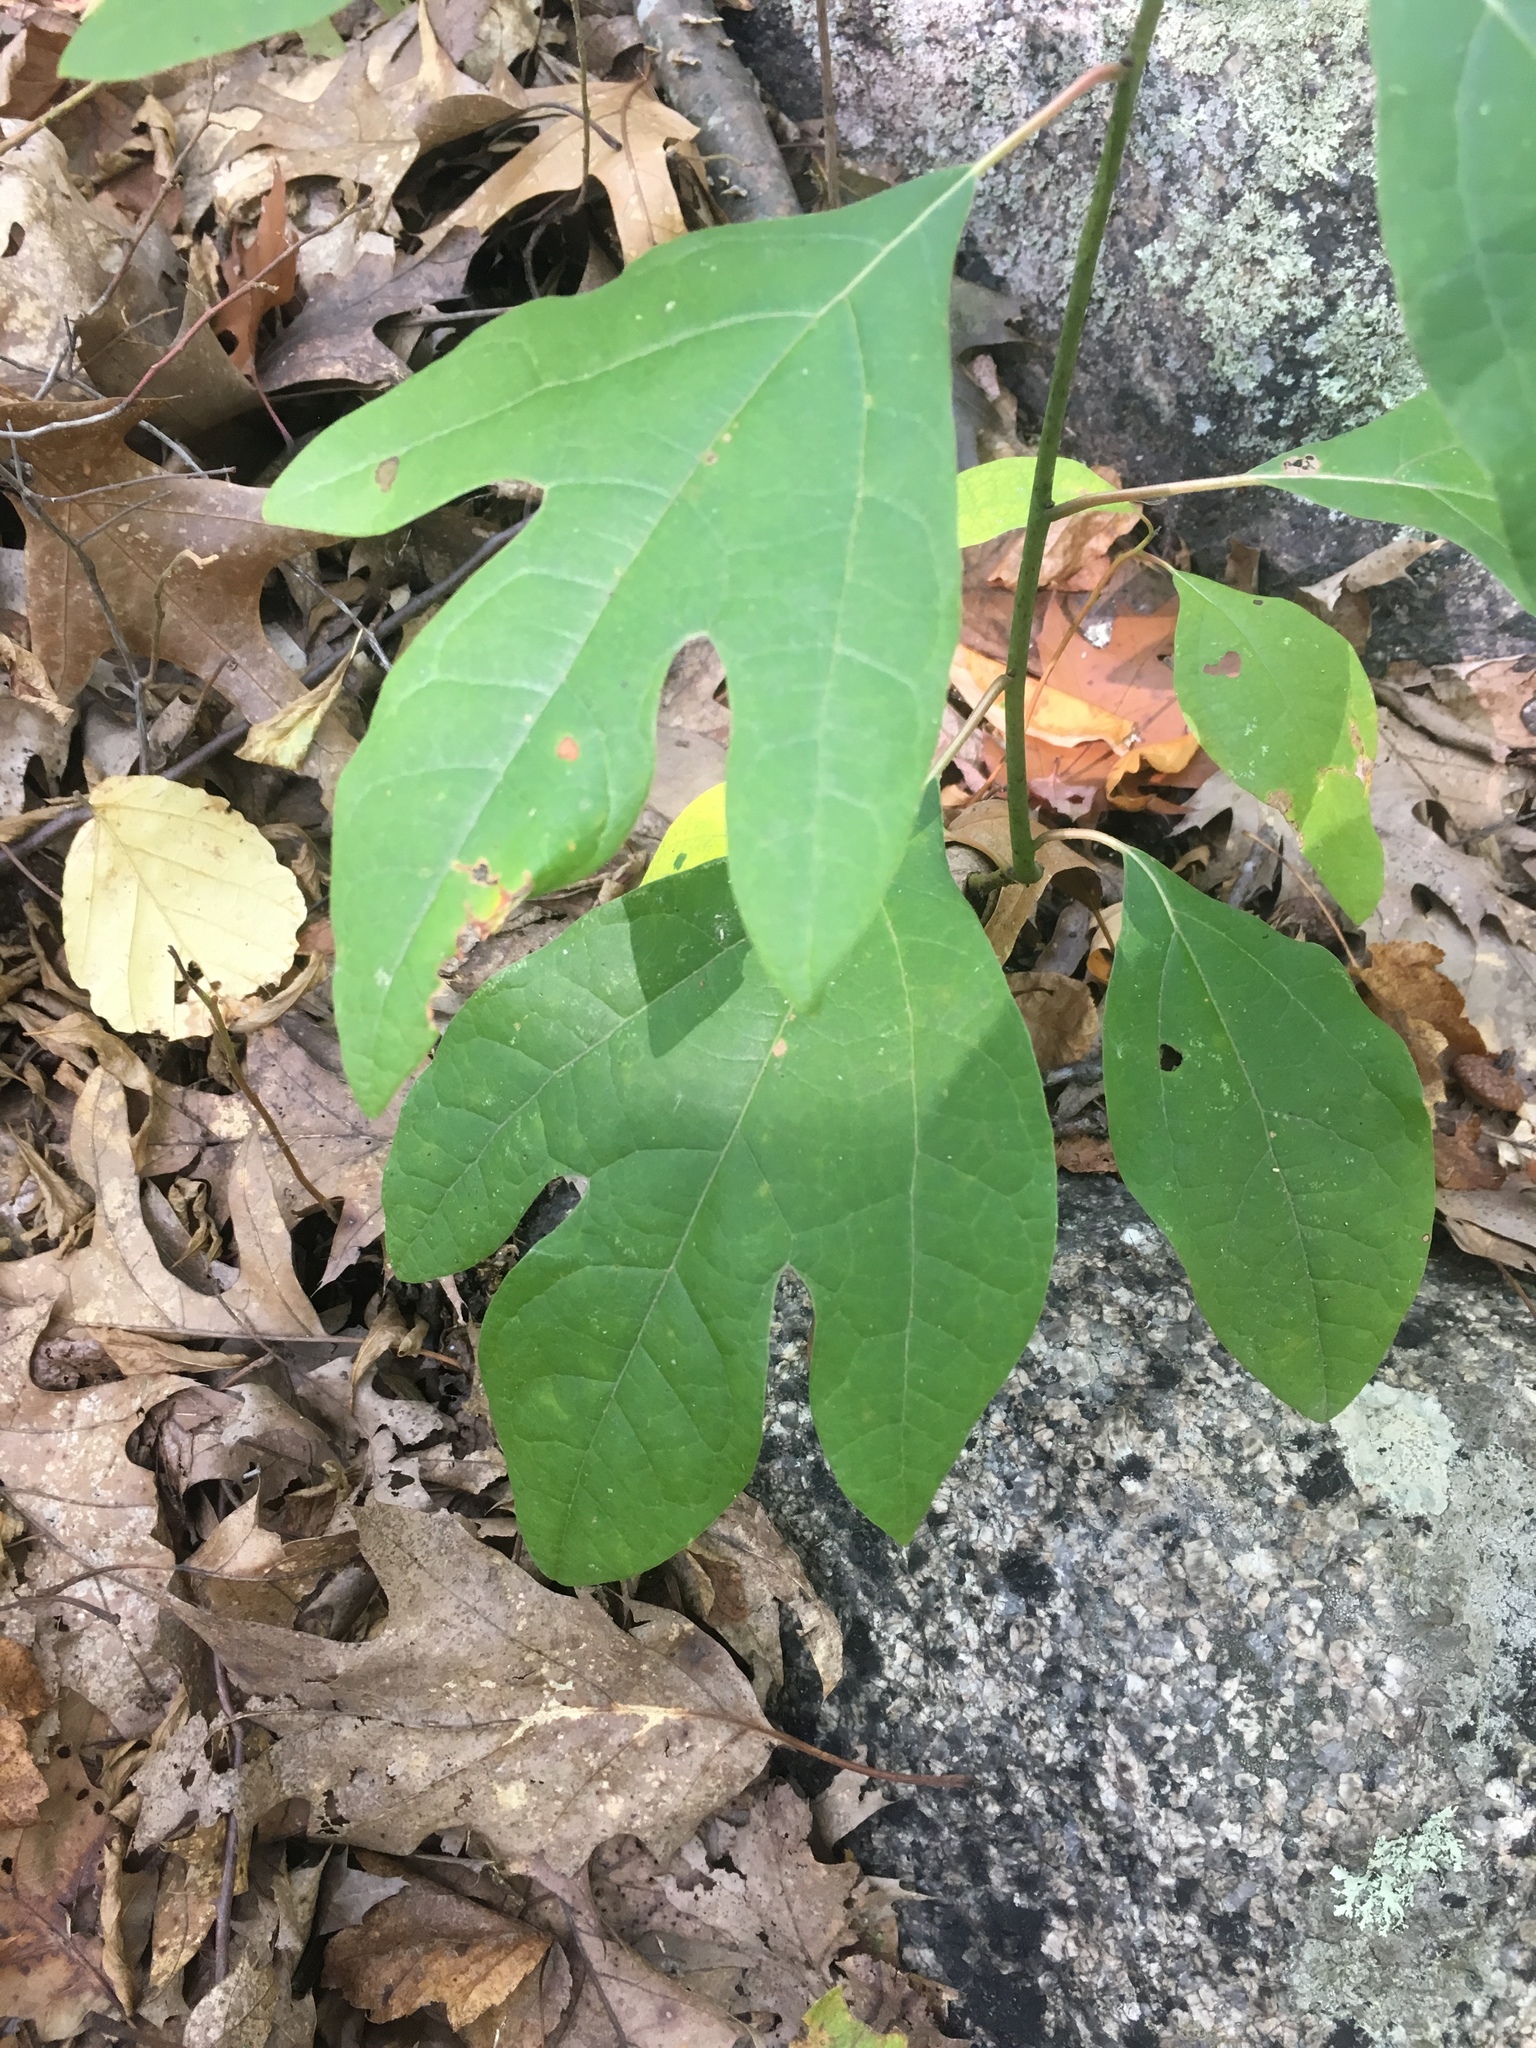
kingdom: Plantae
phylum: Tracheophyta
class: Magnoliopsida
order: Laurales
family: Lauraceae
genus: Sassafras
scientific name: Sassafras albidum
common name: Sassafras
